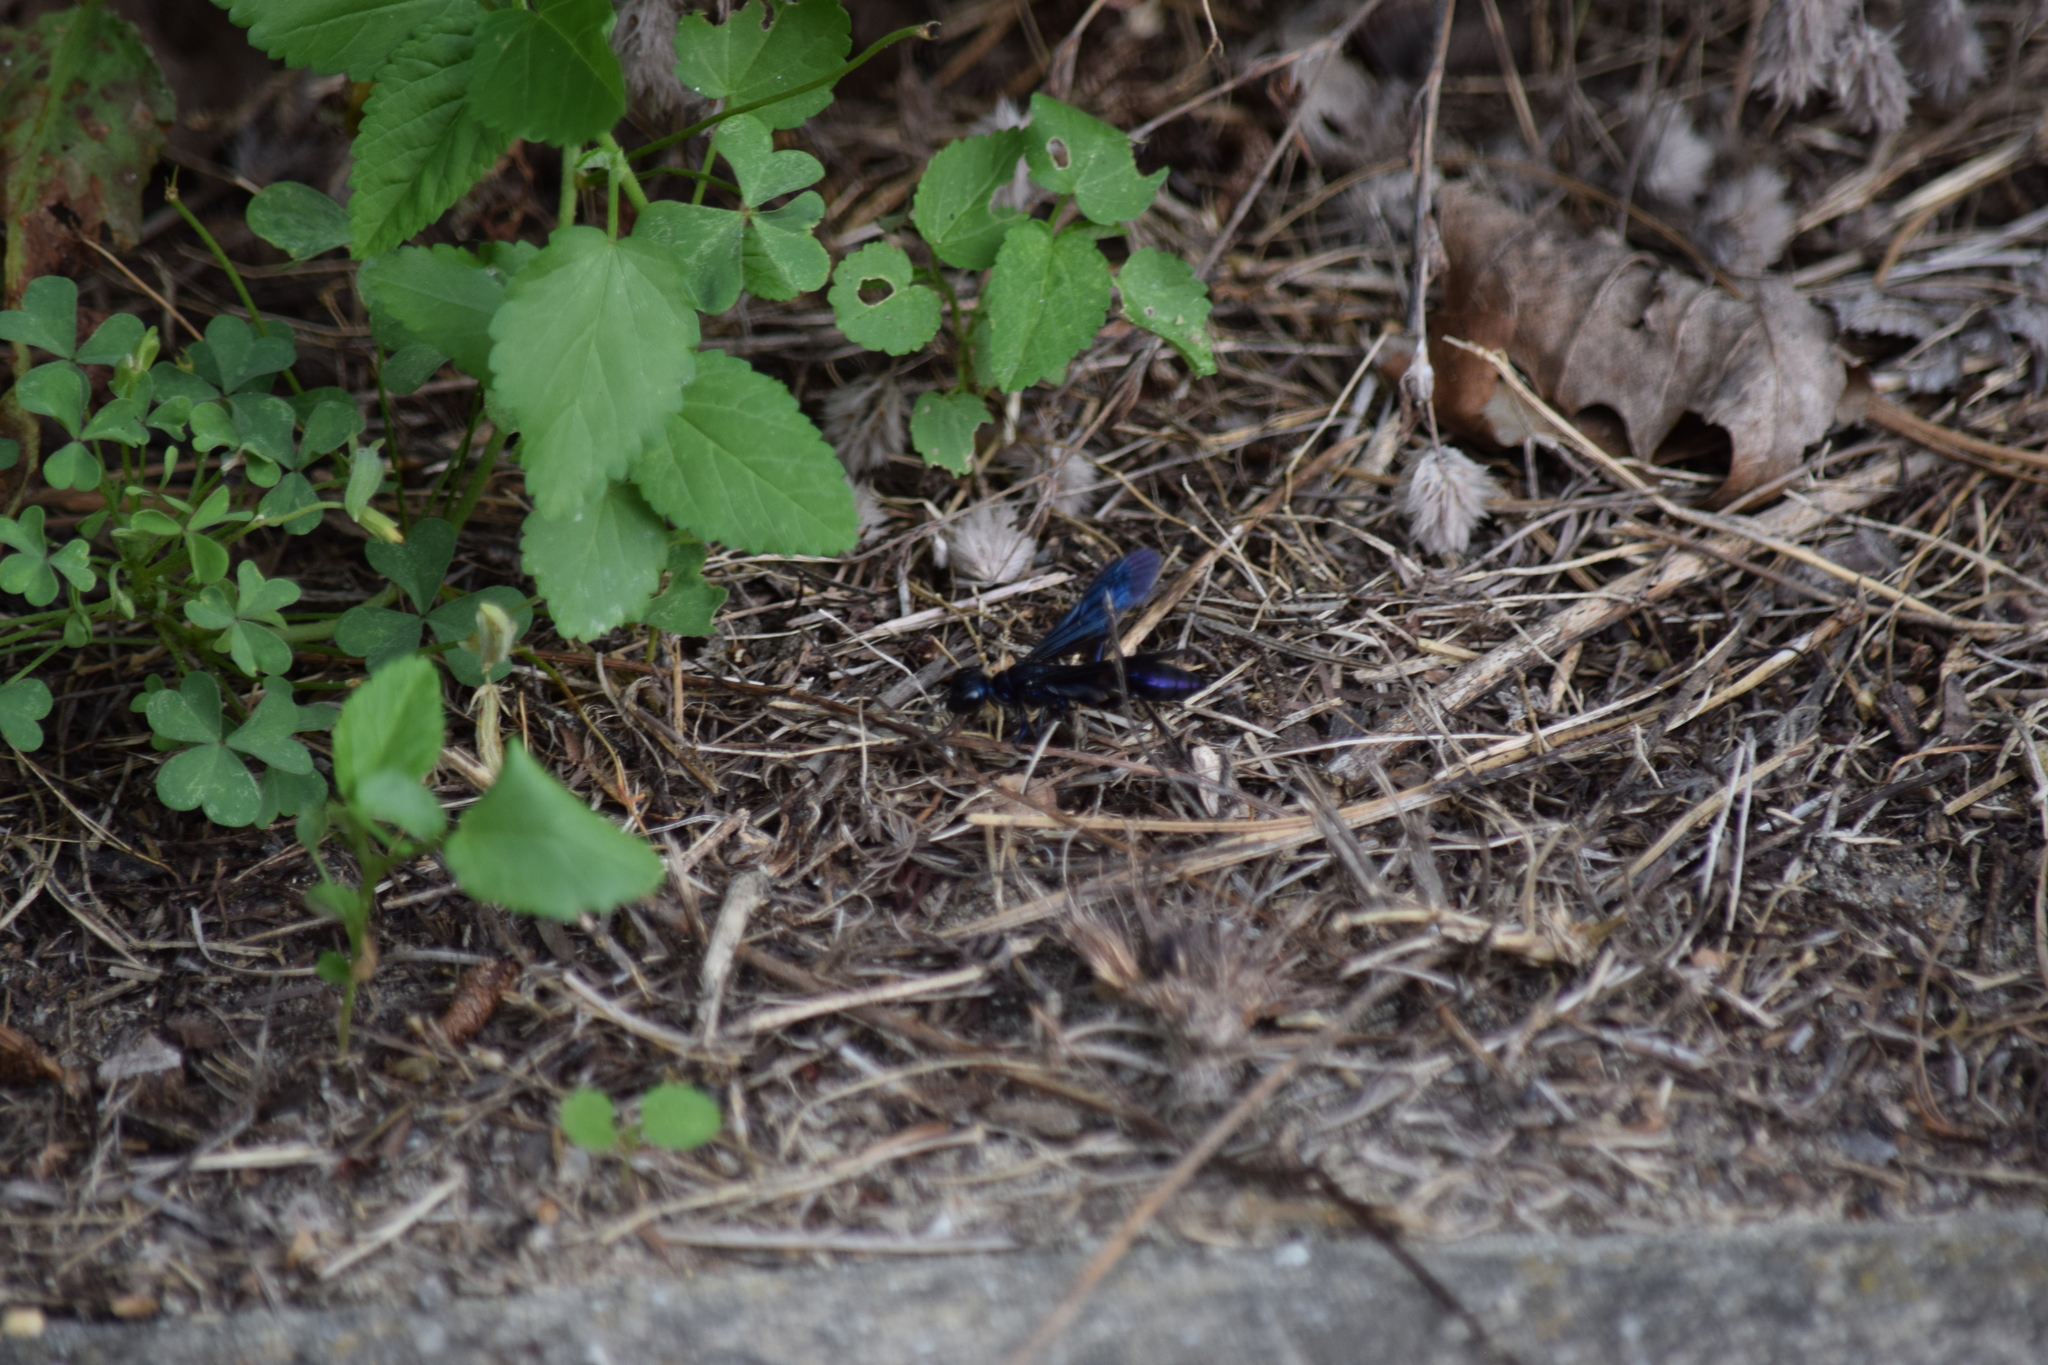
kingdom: Animalia
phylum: Arthropoda
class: Insecta
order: Hymenoptera
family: Sphecidae
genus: Chlorion
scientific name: Chlorion aerarium
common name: Steel-blue cricket hunter
